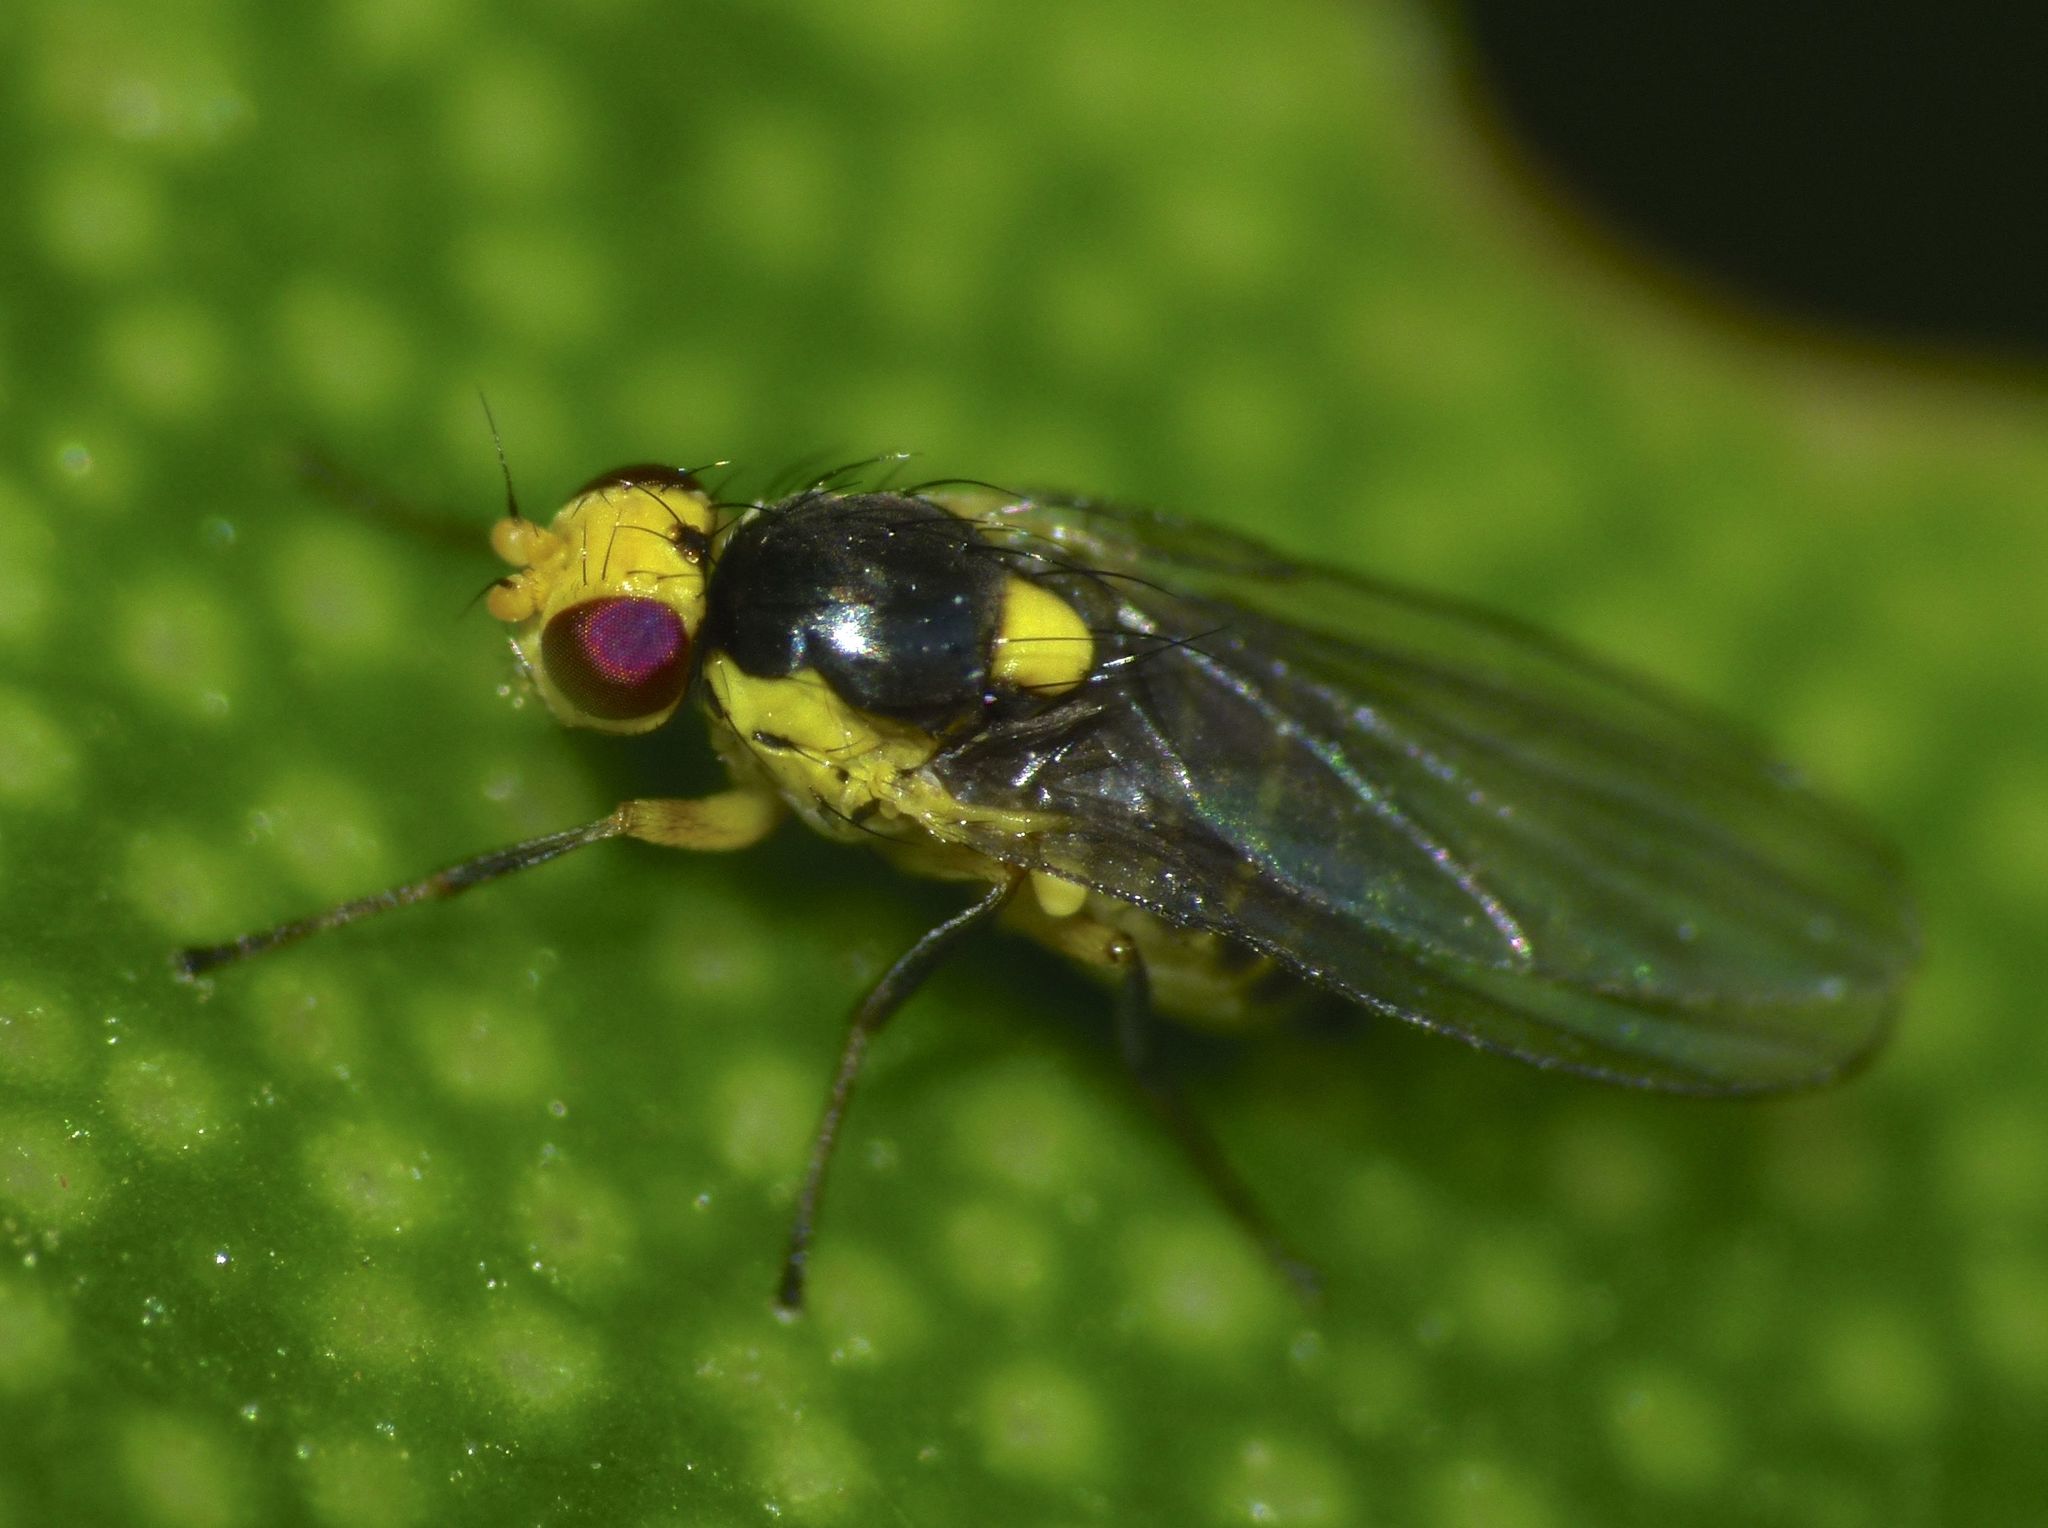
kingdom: Animalia
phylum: Arthropoda
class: Insecta
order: Diptera
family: Agromyzidae
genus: Liriomyza
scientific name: Liriomyza citreifemorata
